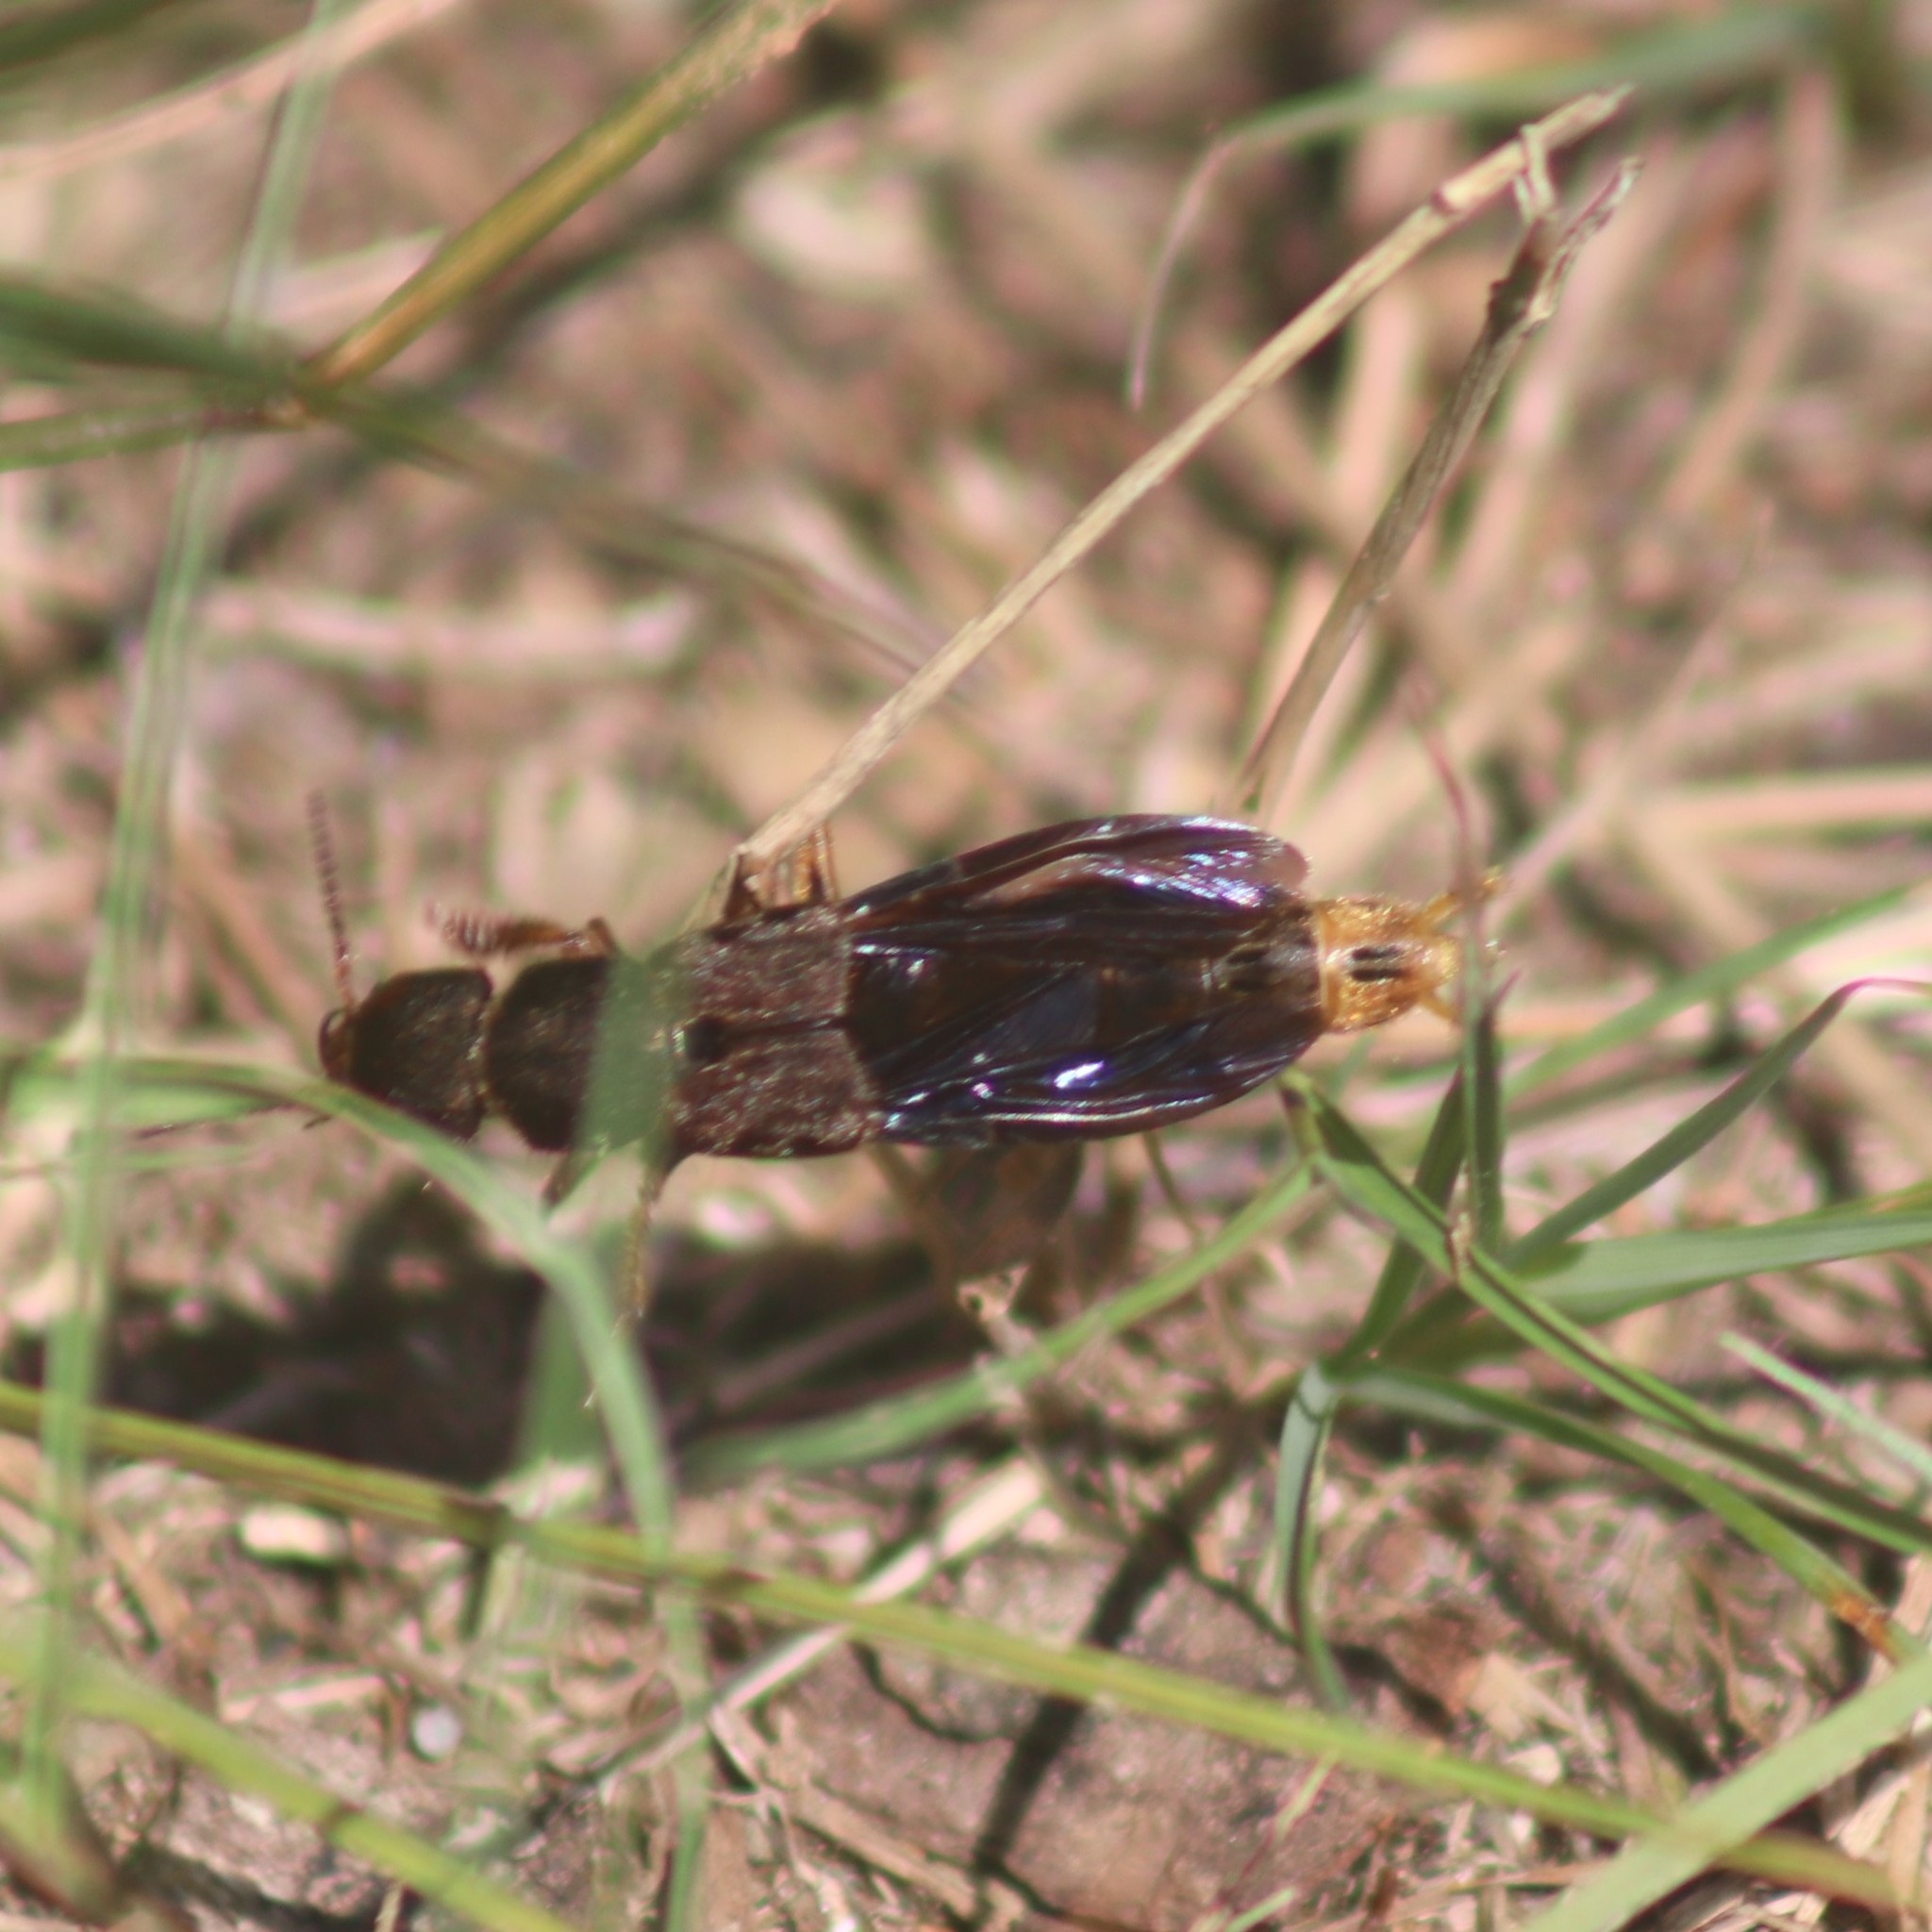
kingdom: Animalia
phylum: Arthropoda
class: Insecta
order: Coleoptera
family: Staphylinidae
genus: Platydracus
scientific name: Platydracus maculosus
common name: Brown rove beetle
